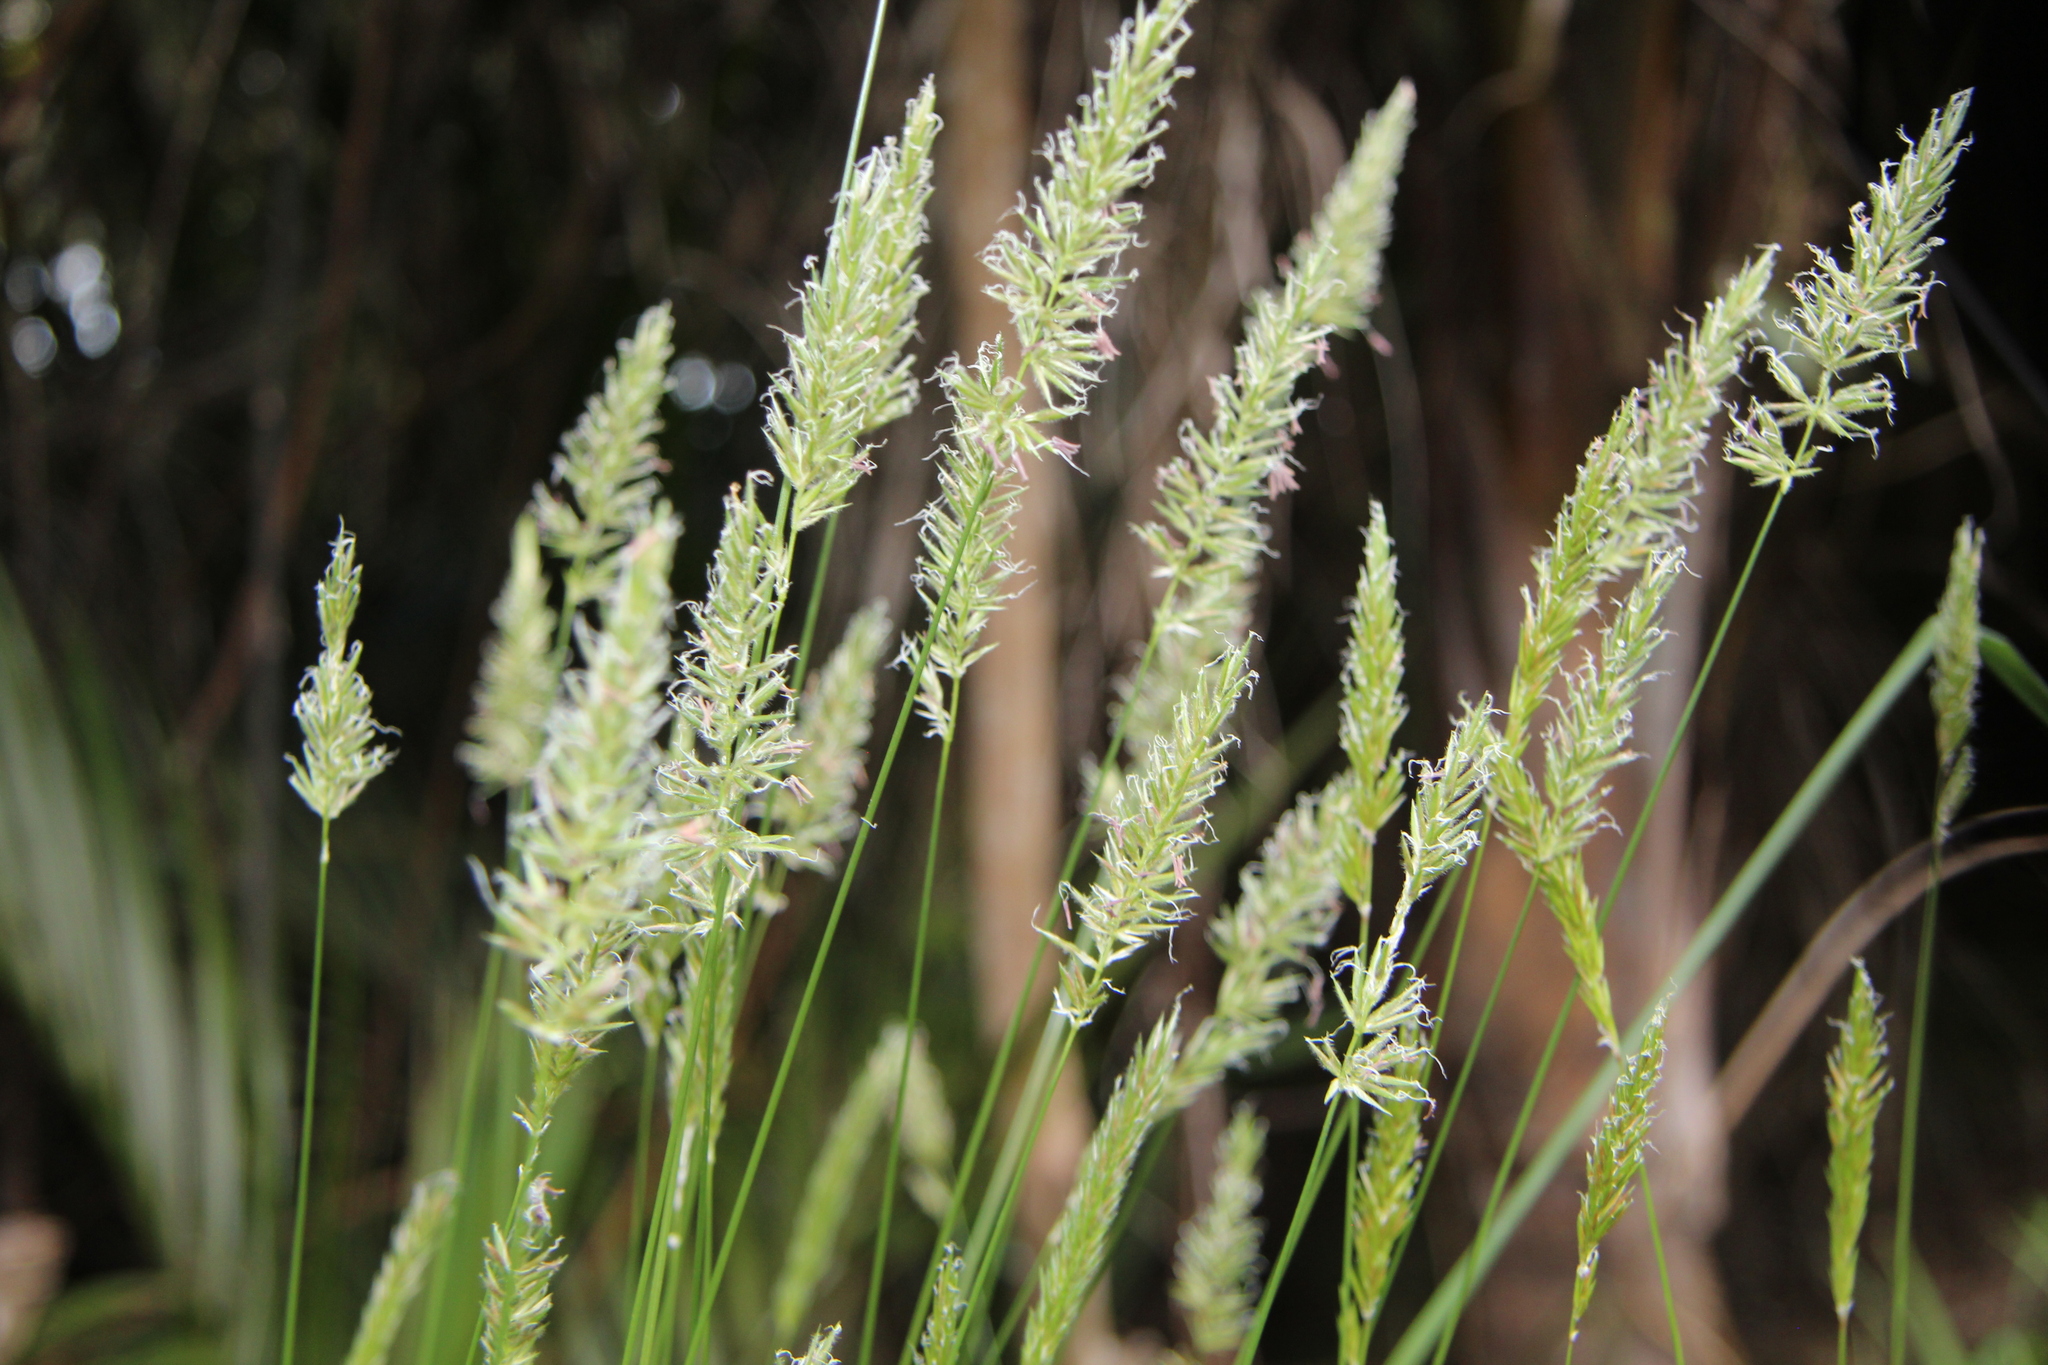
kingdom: Plantae
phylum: Tracheophyta
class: Liliopsida
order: Poales
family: Poaceae
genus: Anthoxanthum
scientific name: Anthoxanthum odoratum
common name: Sweet vernalgrass
